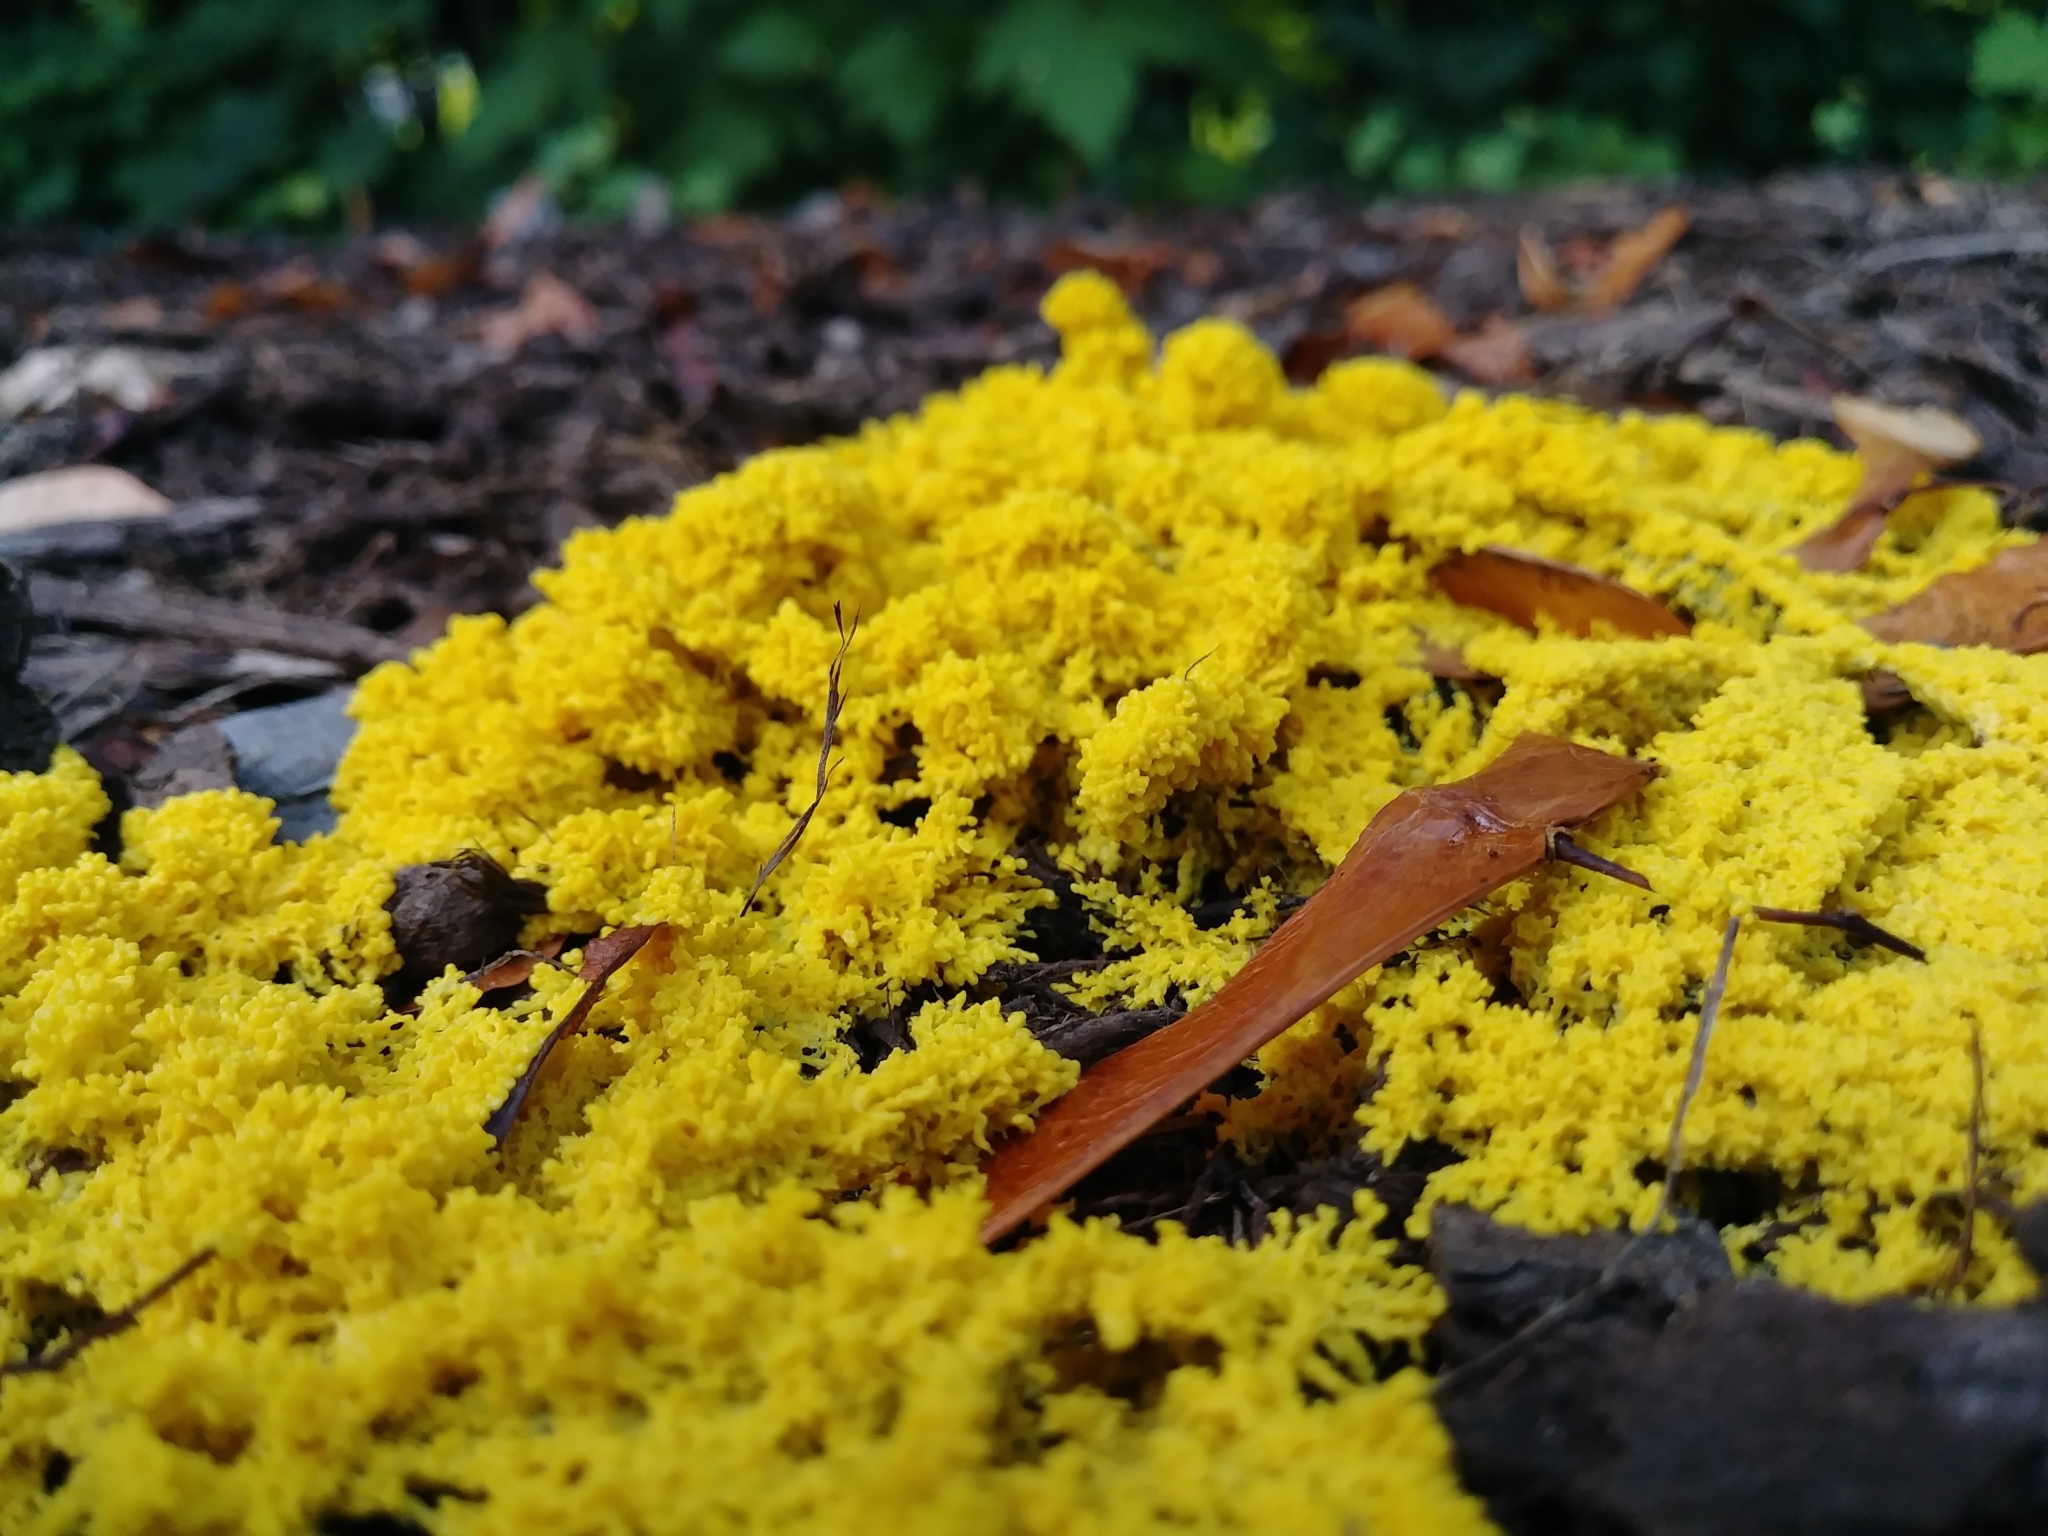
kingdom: Protozoa
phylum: Mycetozoa
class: Myxomycetes
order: Physarales
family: Physaraceae
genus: Fuligo
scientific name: Fuligo septica
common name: Dog vomit slime mold
